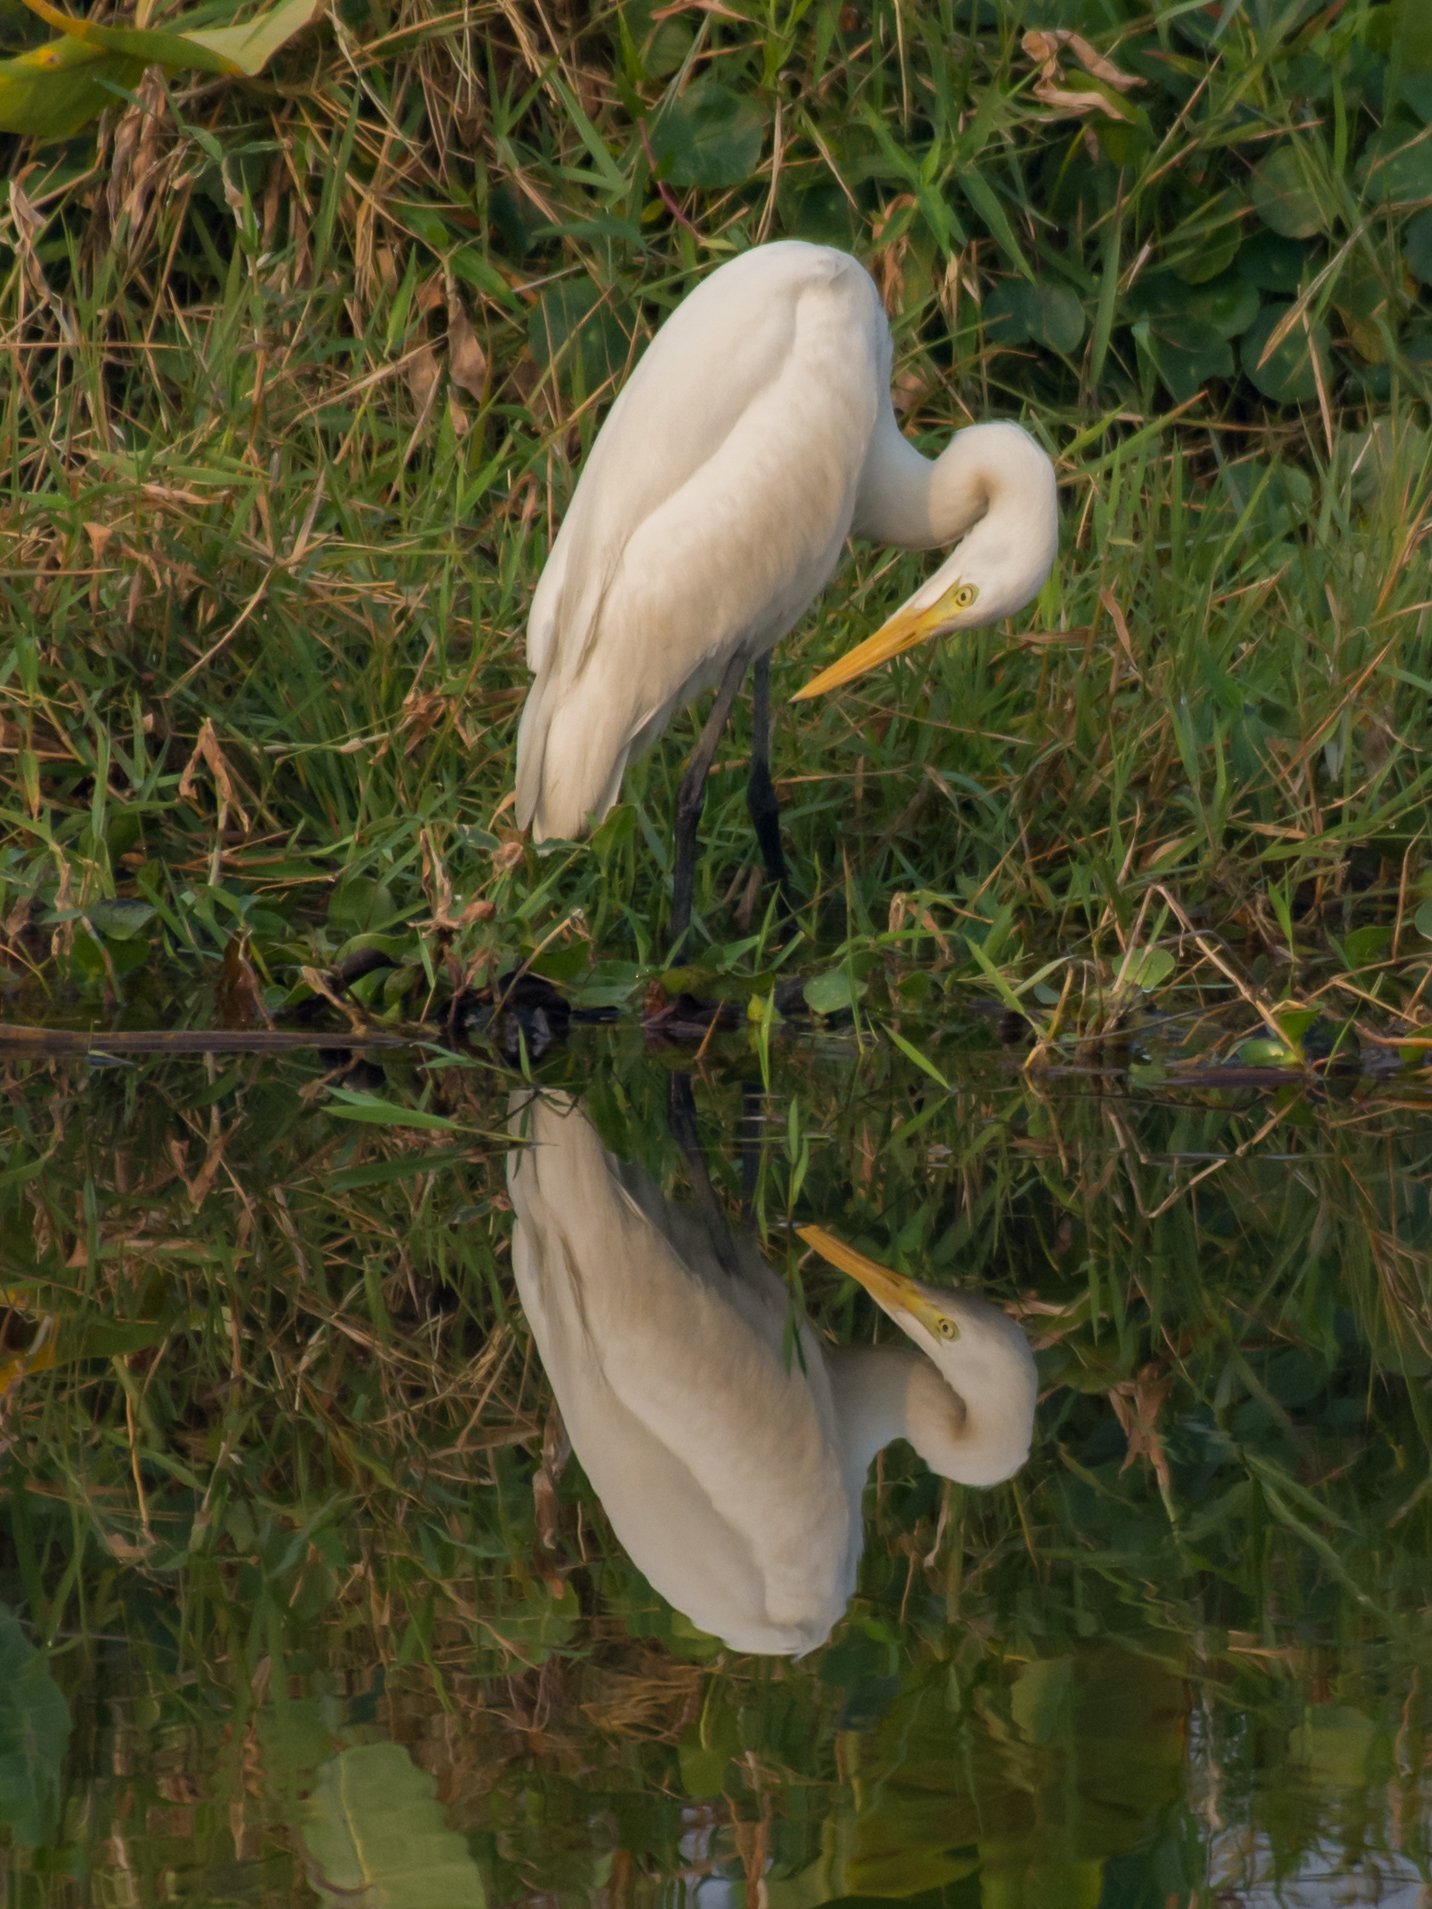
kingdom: Animalia
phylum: Chordata
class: Aves
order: Pelecaniformes
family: Ardeidae
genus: Ardea
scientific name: Ardea alba
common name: Great egret
